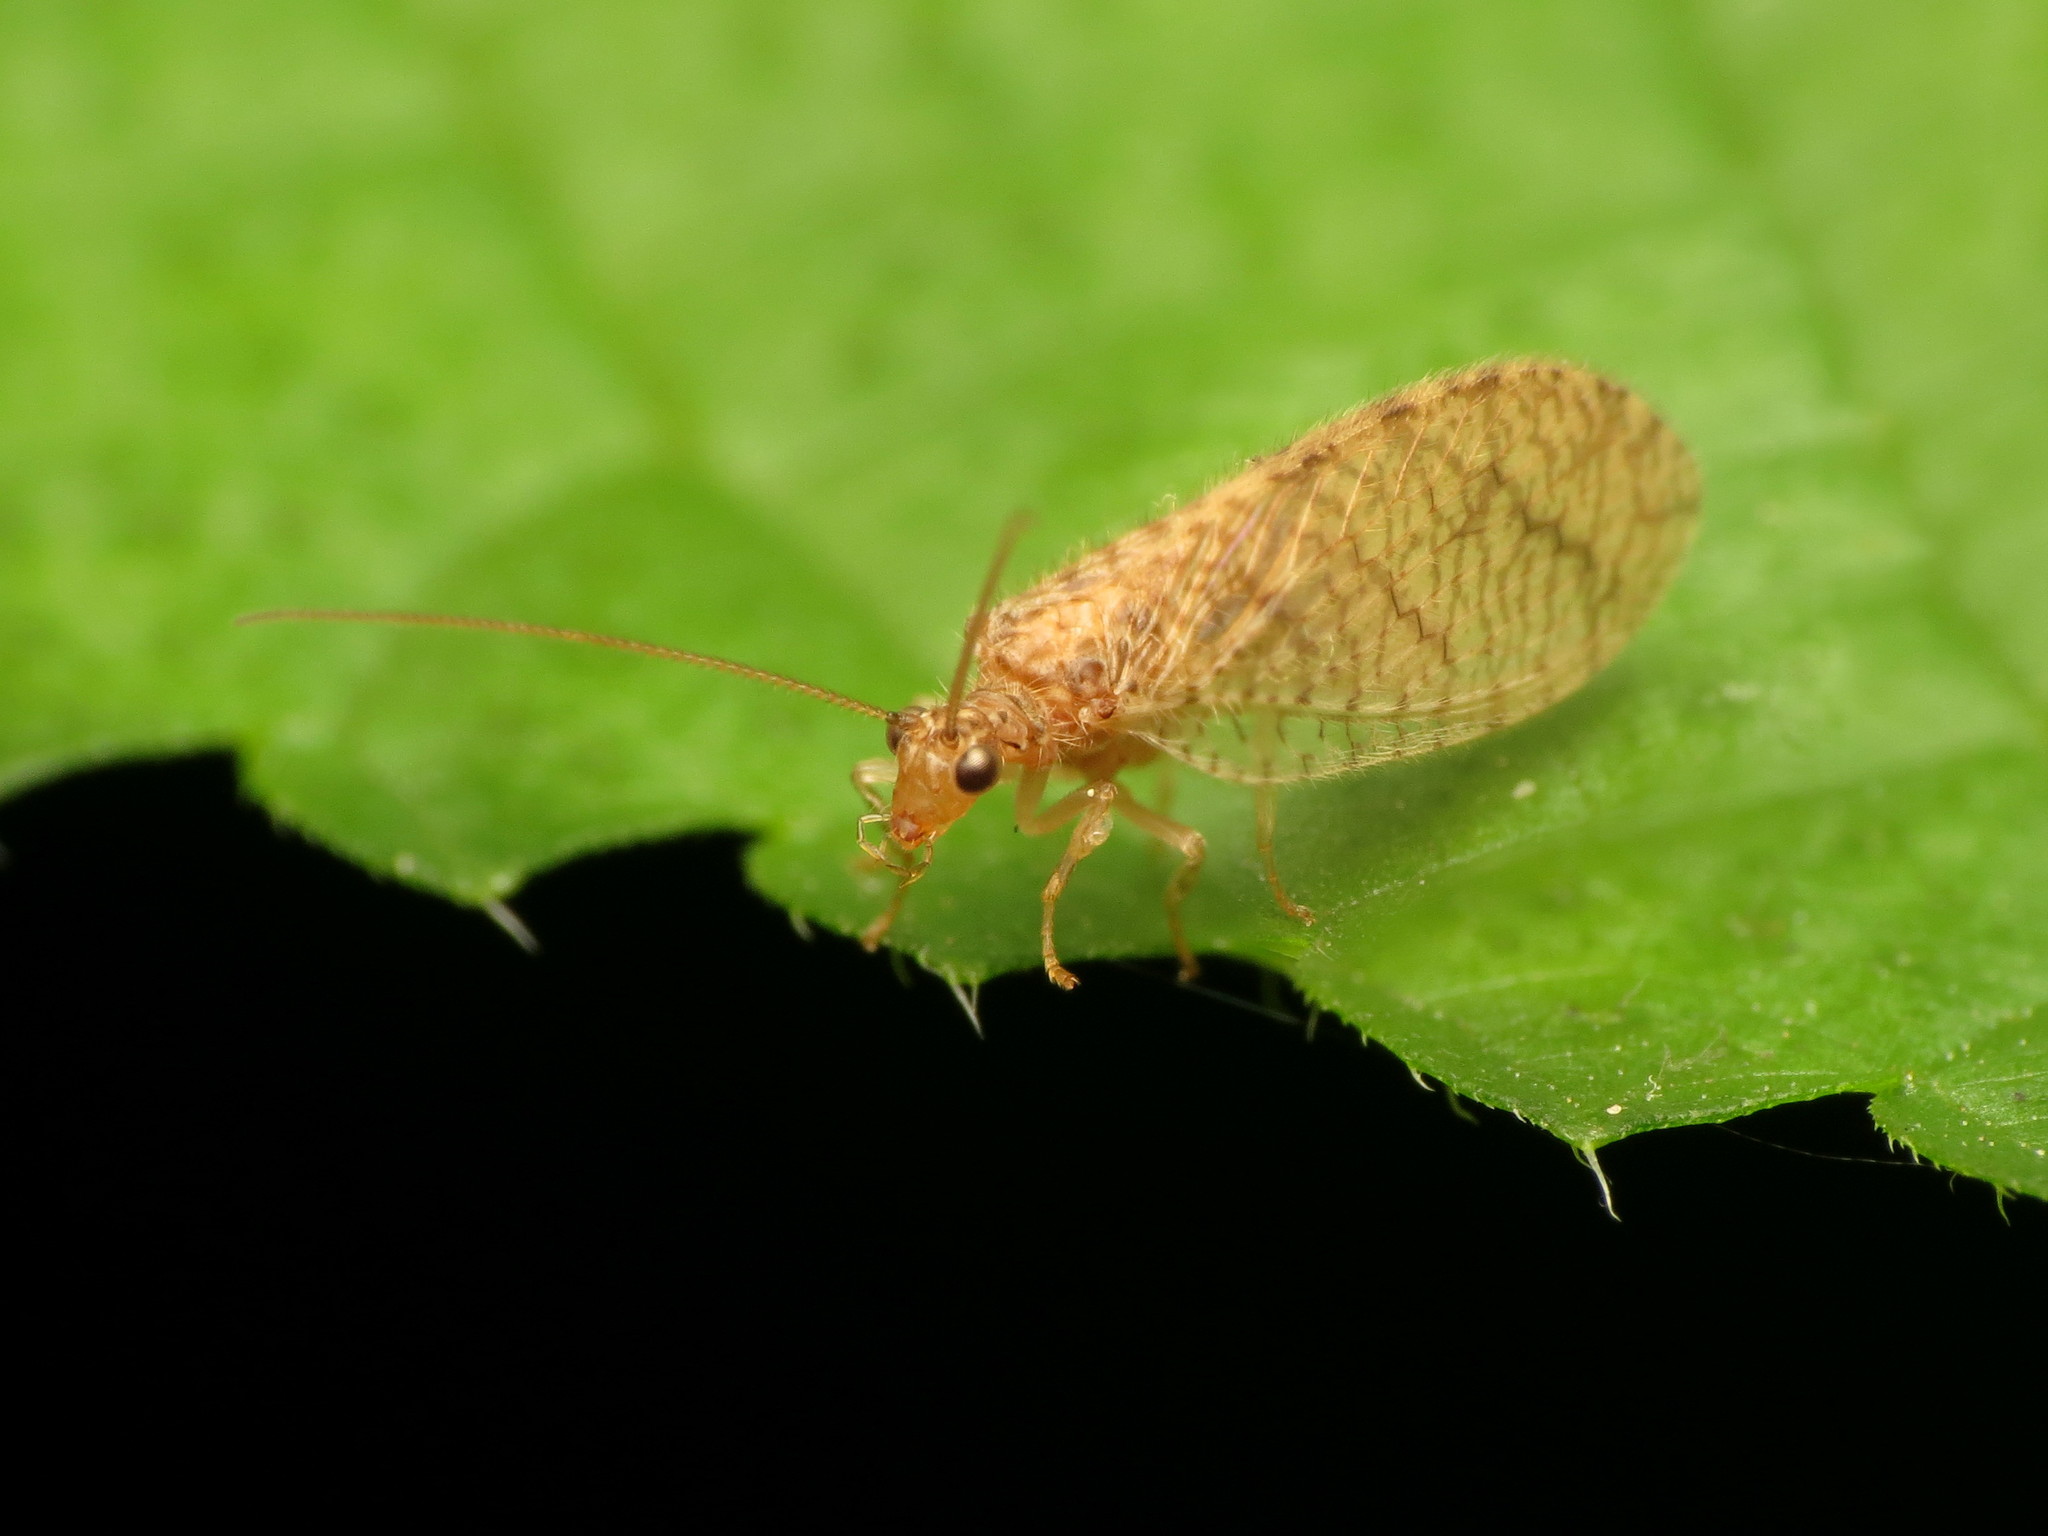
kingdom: Animalia
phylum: Arthropoda
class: Insecta
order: Neuroptera
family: Hemerobiidae
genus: Micromus
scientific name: Micromus posticus
